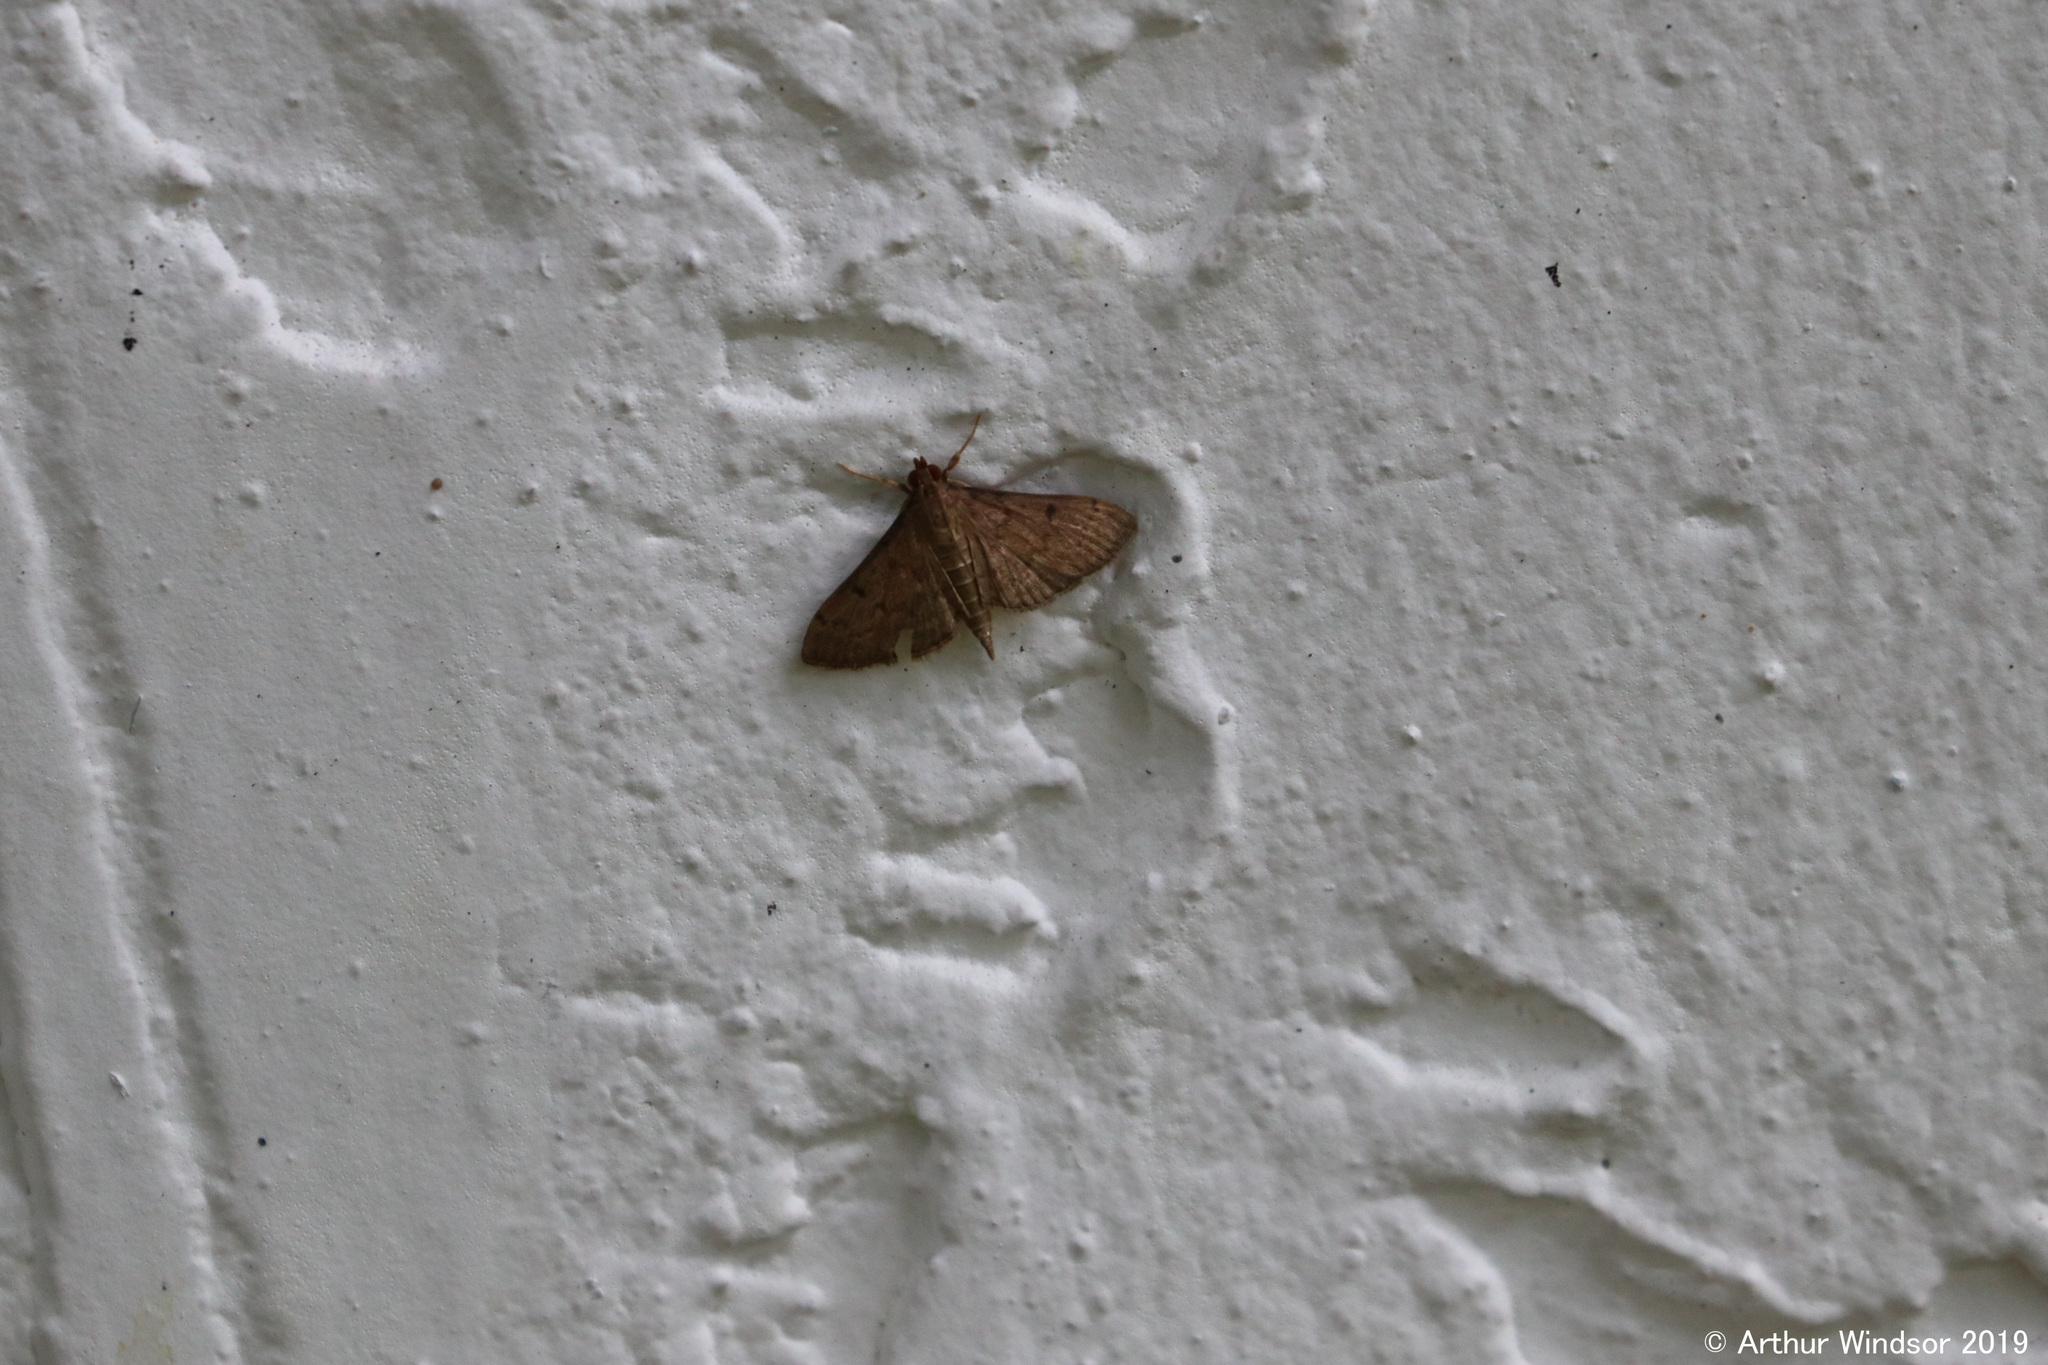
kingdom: Animalia
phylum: Arthropoda
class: Insecta
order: Lepidoptera
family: Crambidae
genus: Herpetogramma
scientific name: Herpetogramma phaeopteralis
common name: Dusky herpetogramma moth
